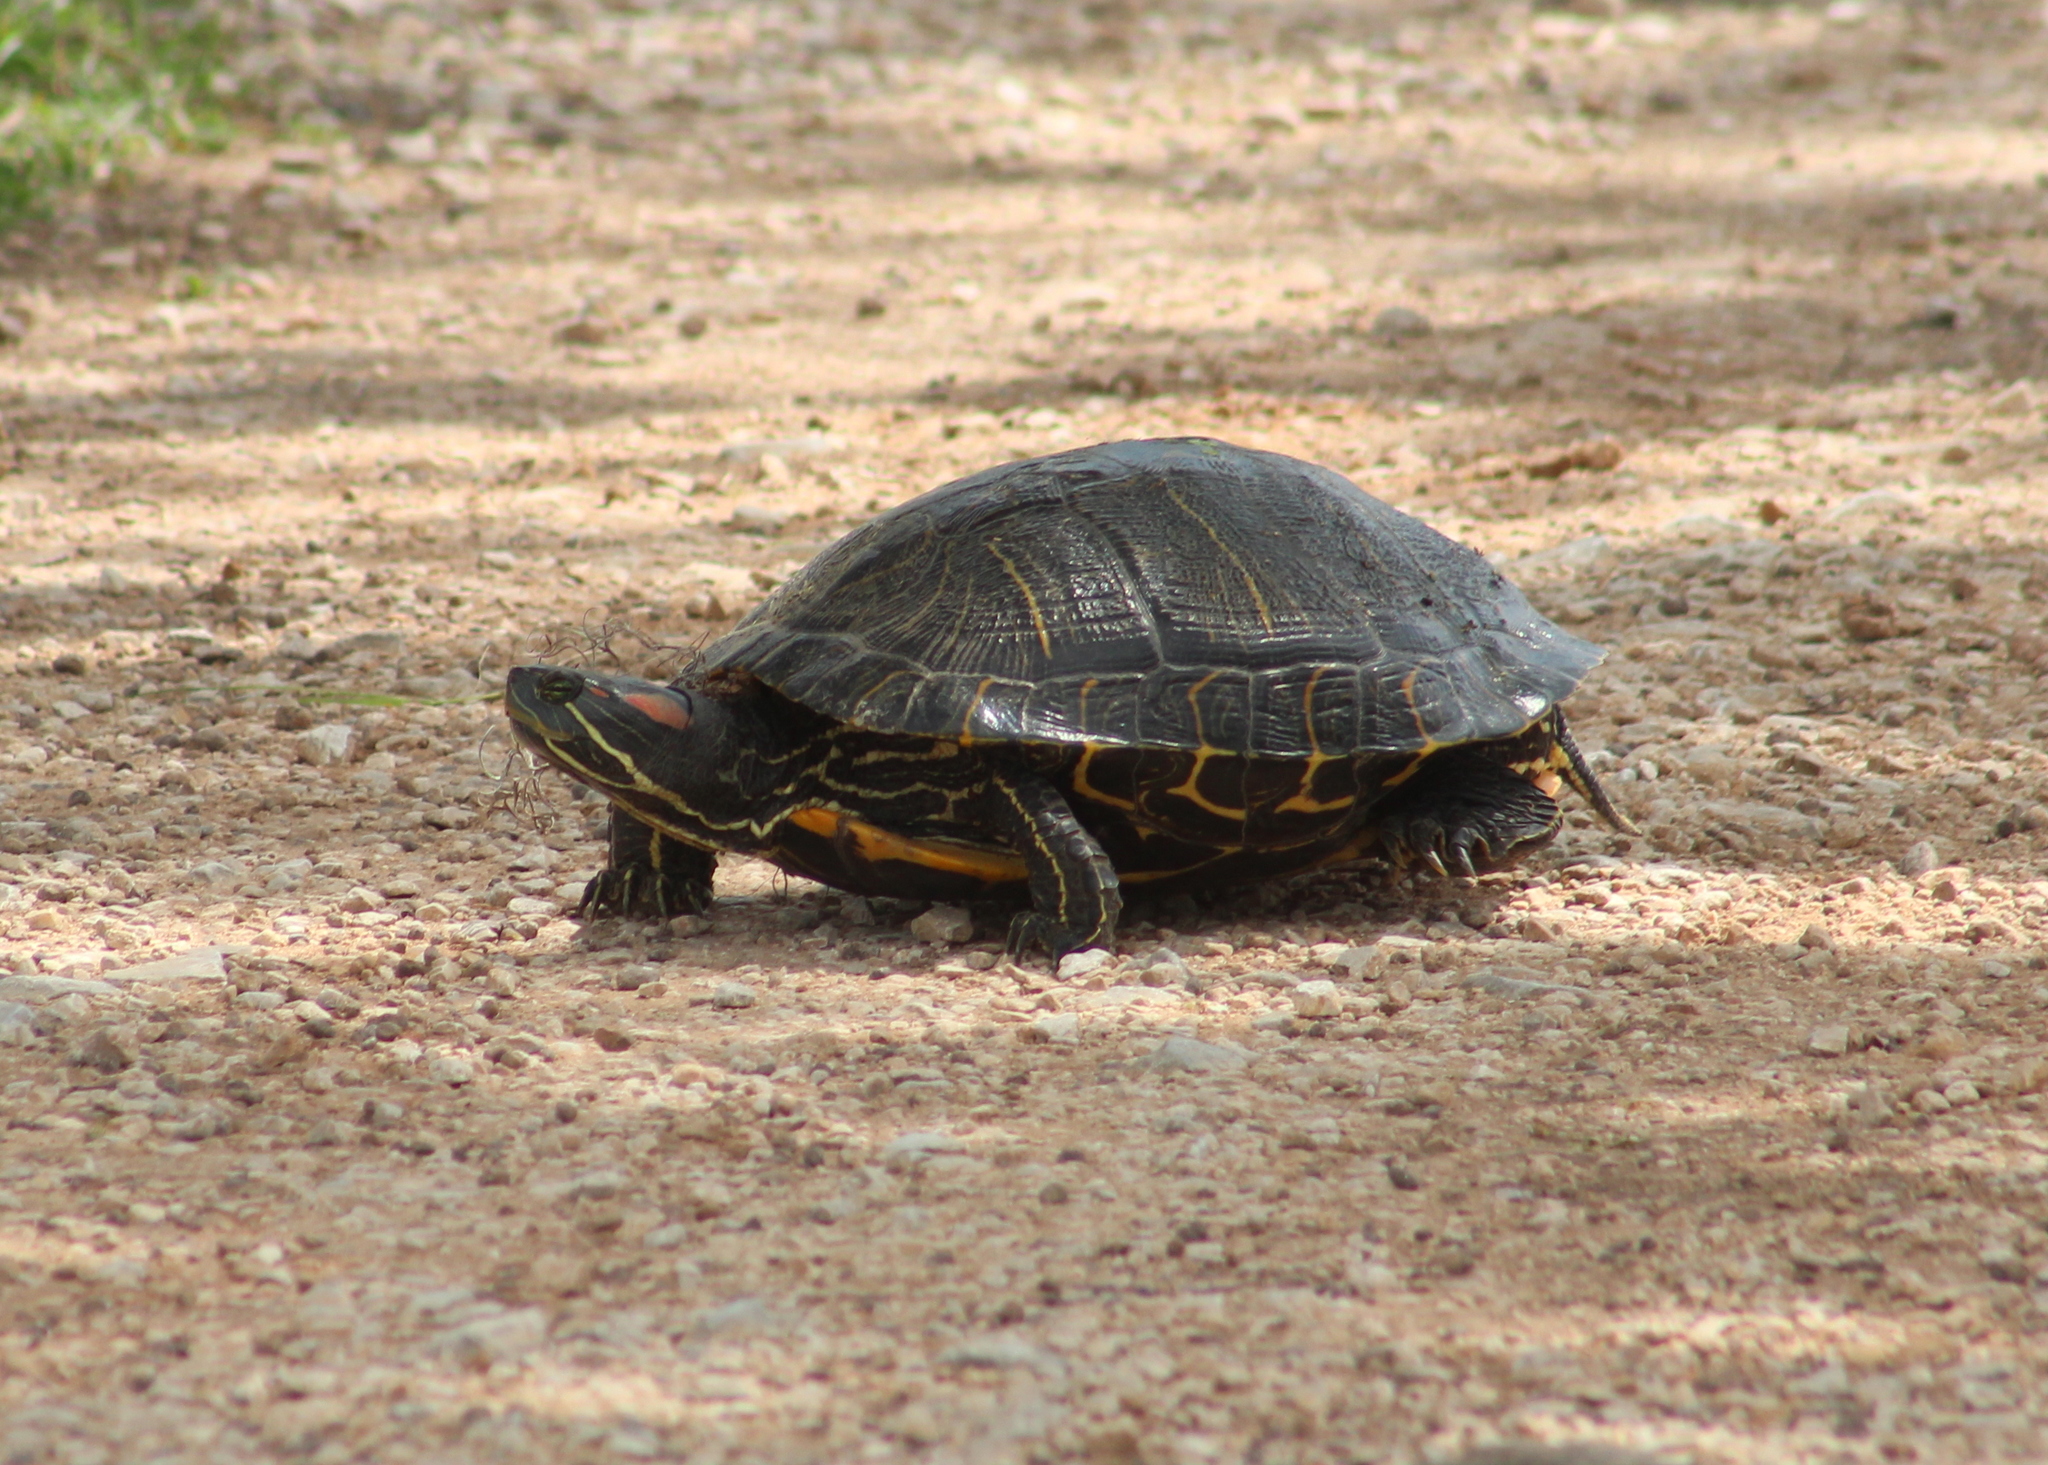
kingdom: Animalia
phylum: Chordata
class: Testudines
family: Emydidae
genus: Trachemys
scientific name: Trachemys scripta
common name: Slider
